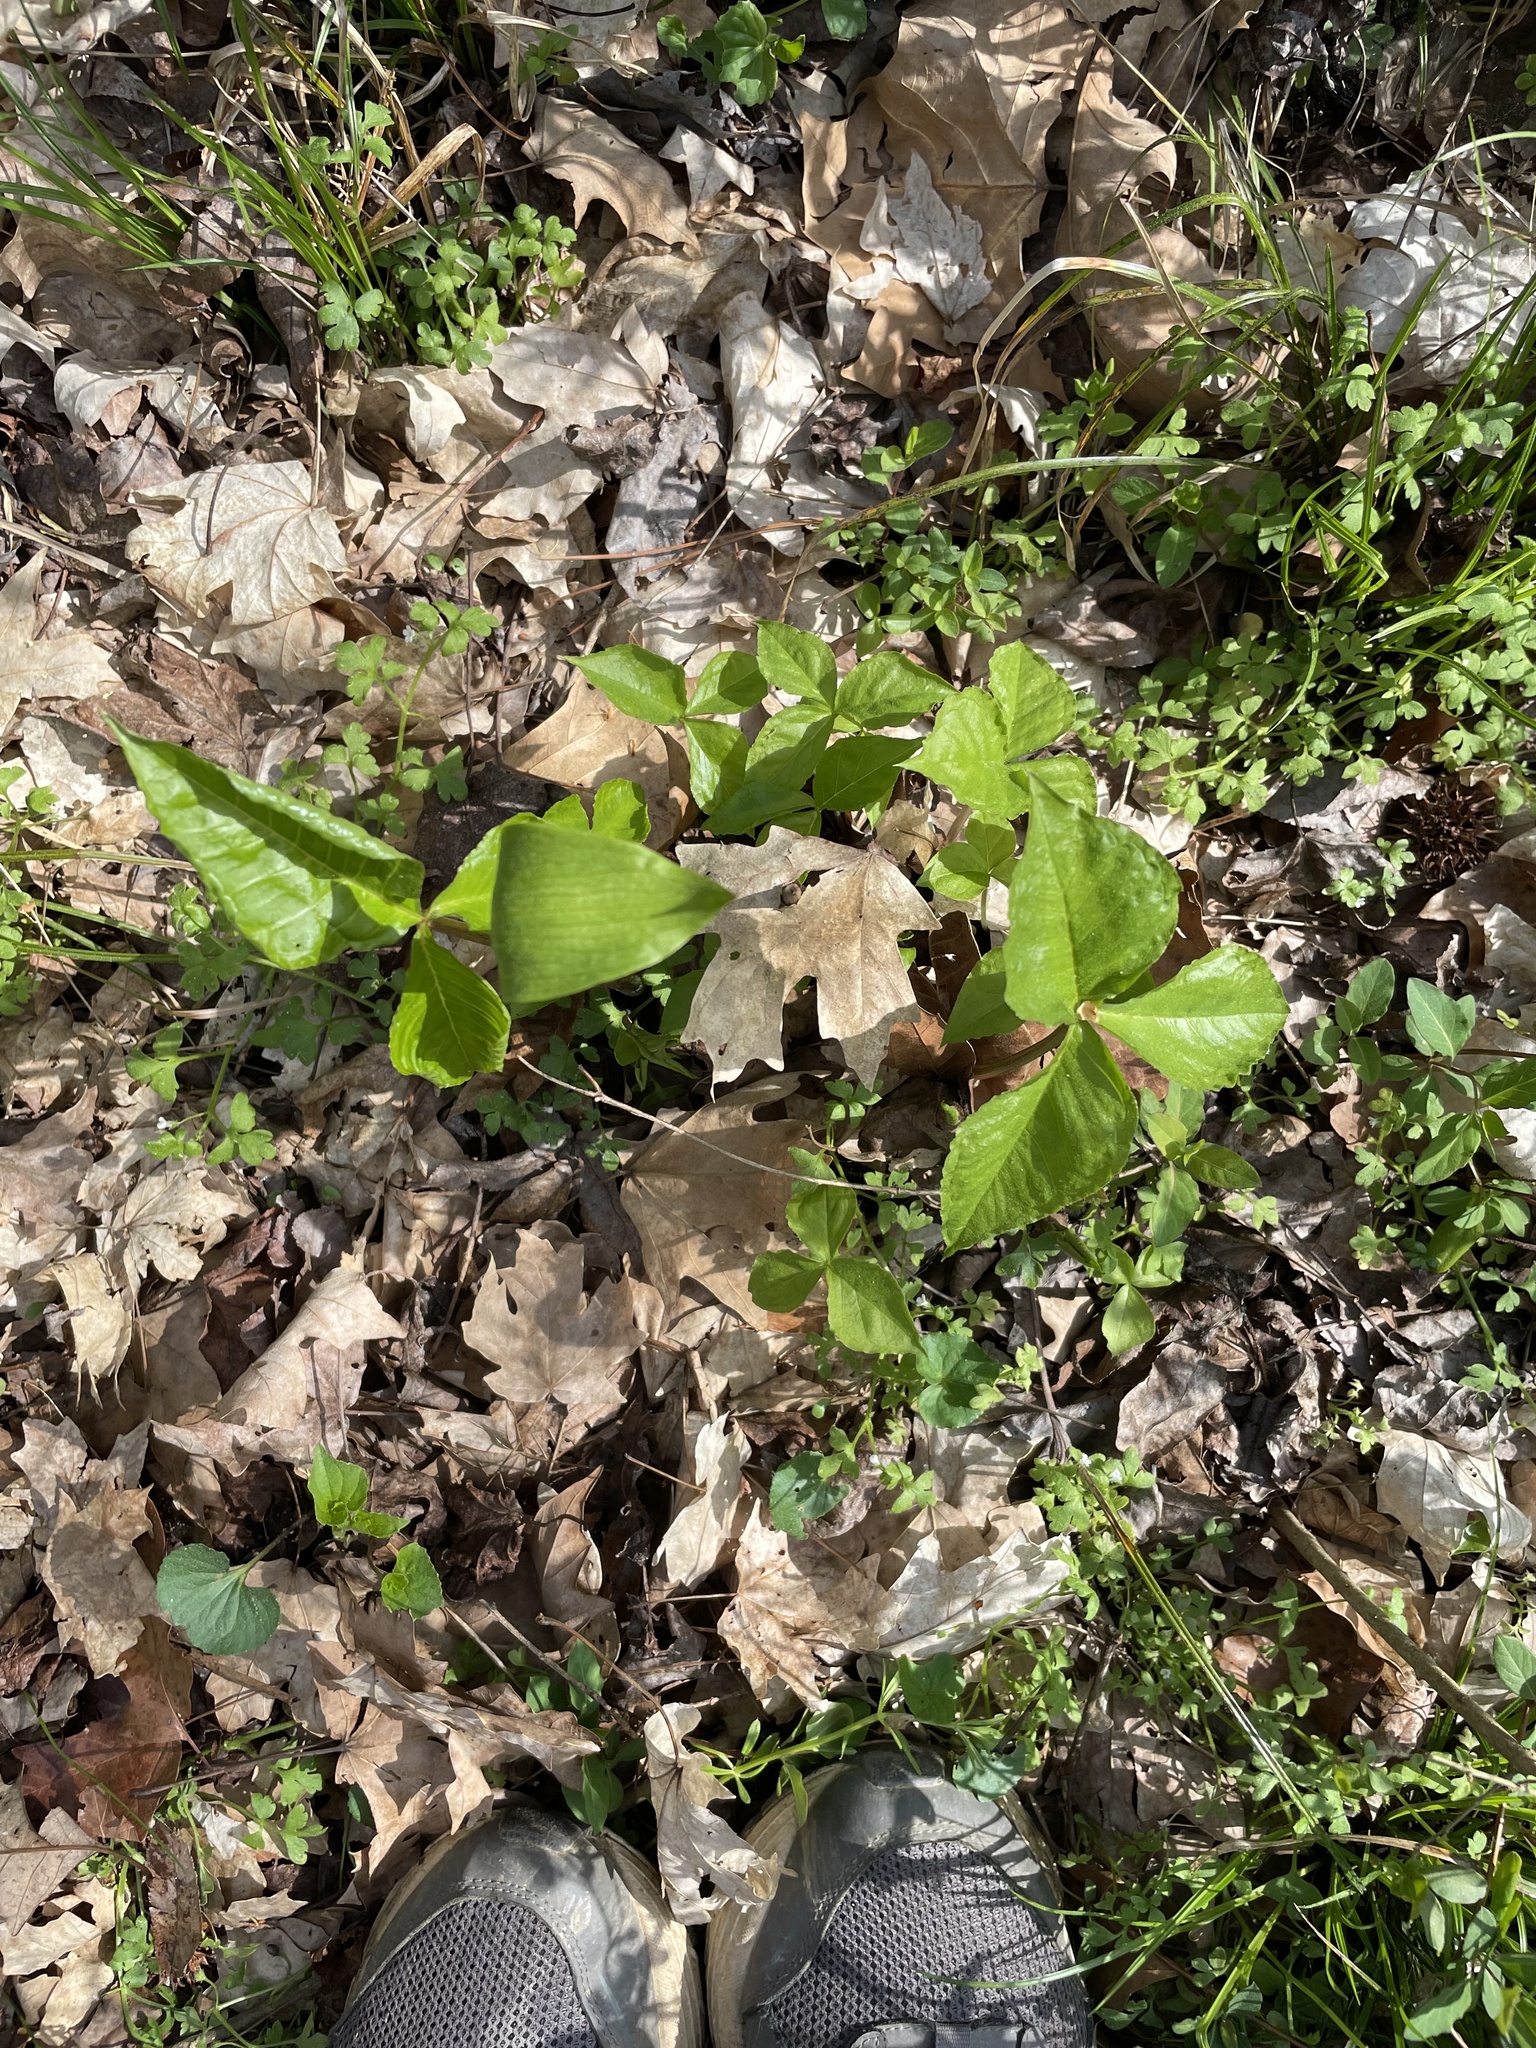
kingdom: Plantae
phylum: Tracheophyta
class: Liliopsida
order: Alismatales
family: Araceae
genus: Arisaema
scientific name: Arisaema triphyllum
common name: Jack-in-the-pulpit
